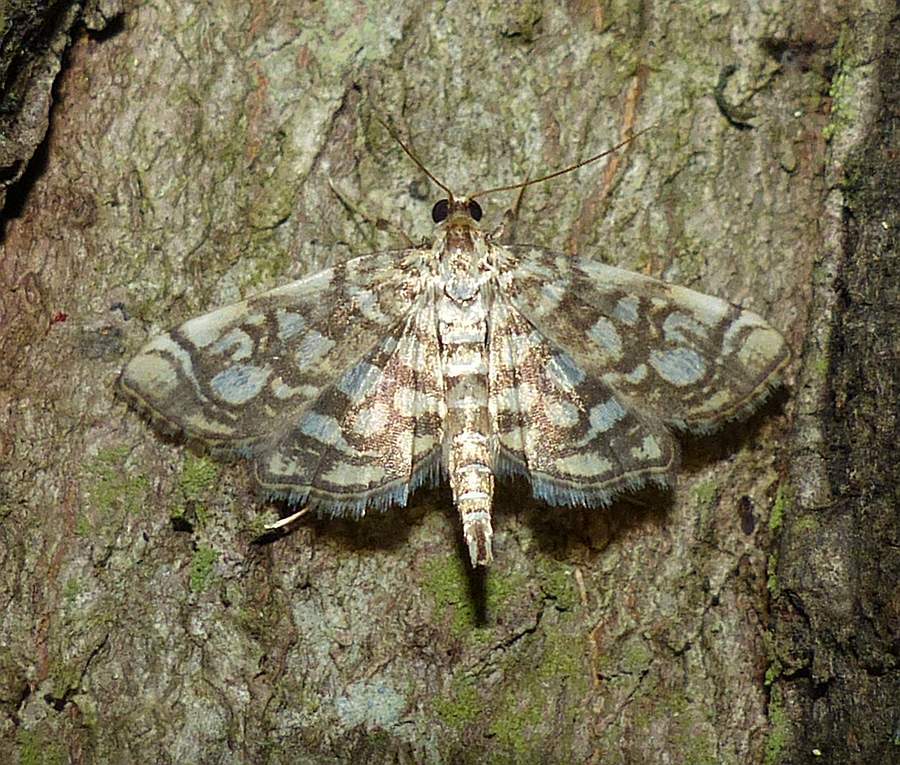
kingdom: Animalia
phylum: Arthropoda
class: Insecta
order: Lepidoptera
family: Crambidae
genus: Lygropia
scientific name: Lygropia rivulalis
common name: Bog lygropia moth
